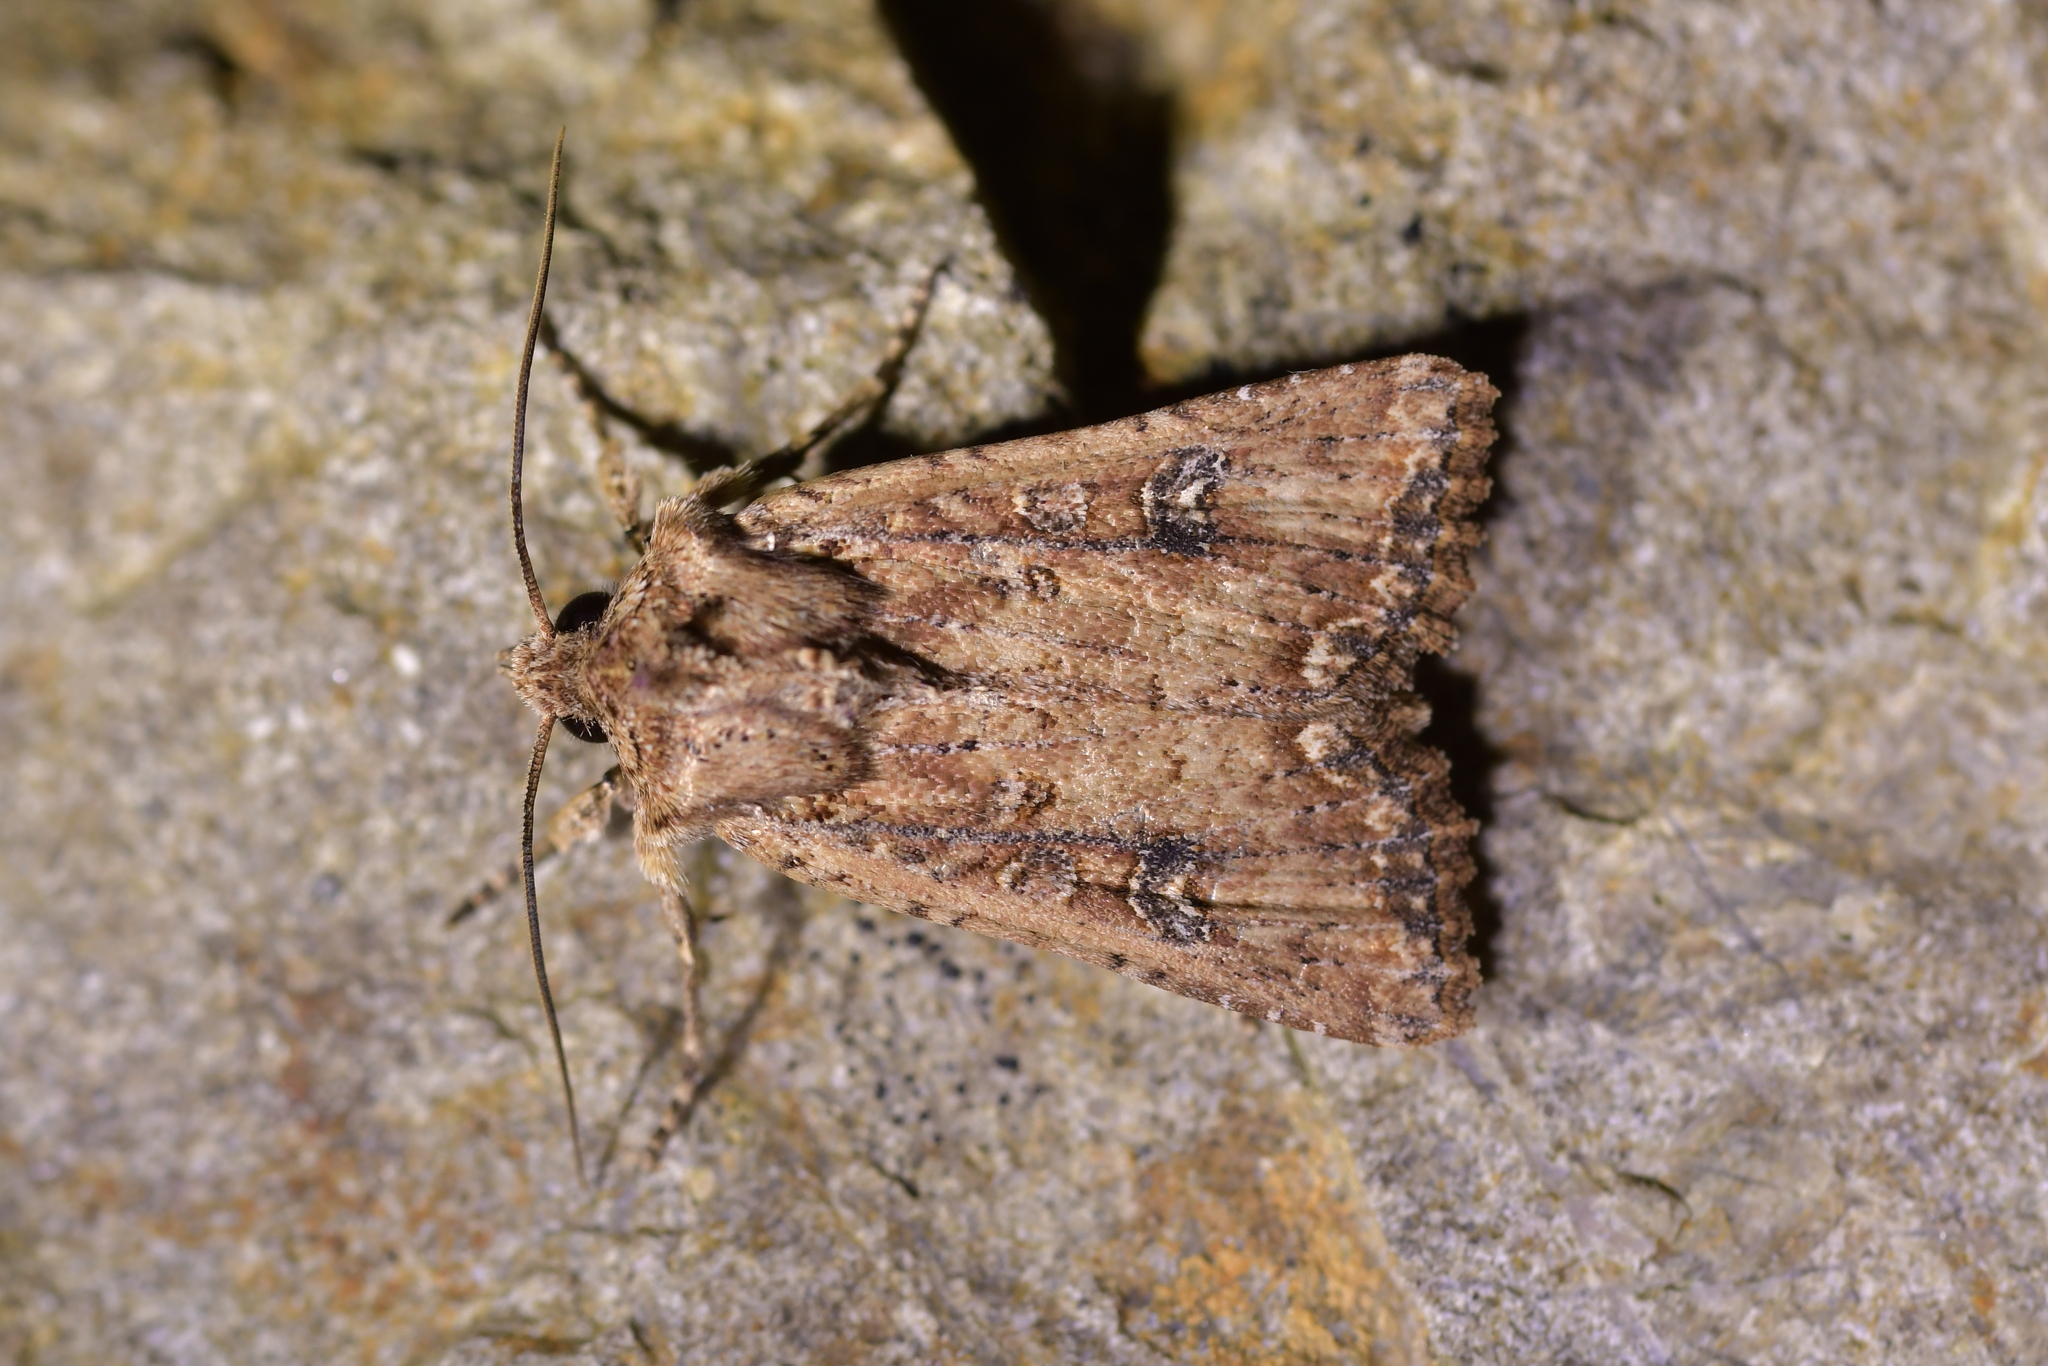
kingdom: Animalia
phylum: Arthropoda
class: Insecta
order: Lepidoptera
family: Noctuidae
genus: Ichneutica
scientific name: Ichneutica morosa
